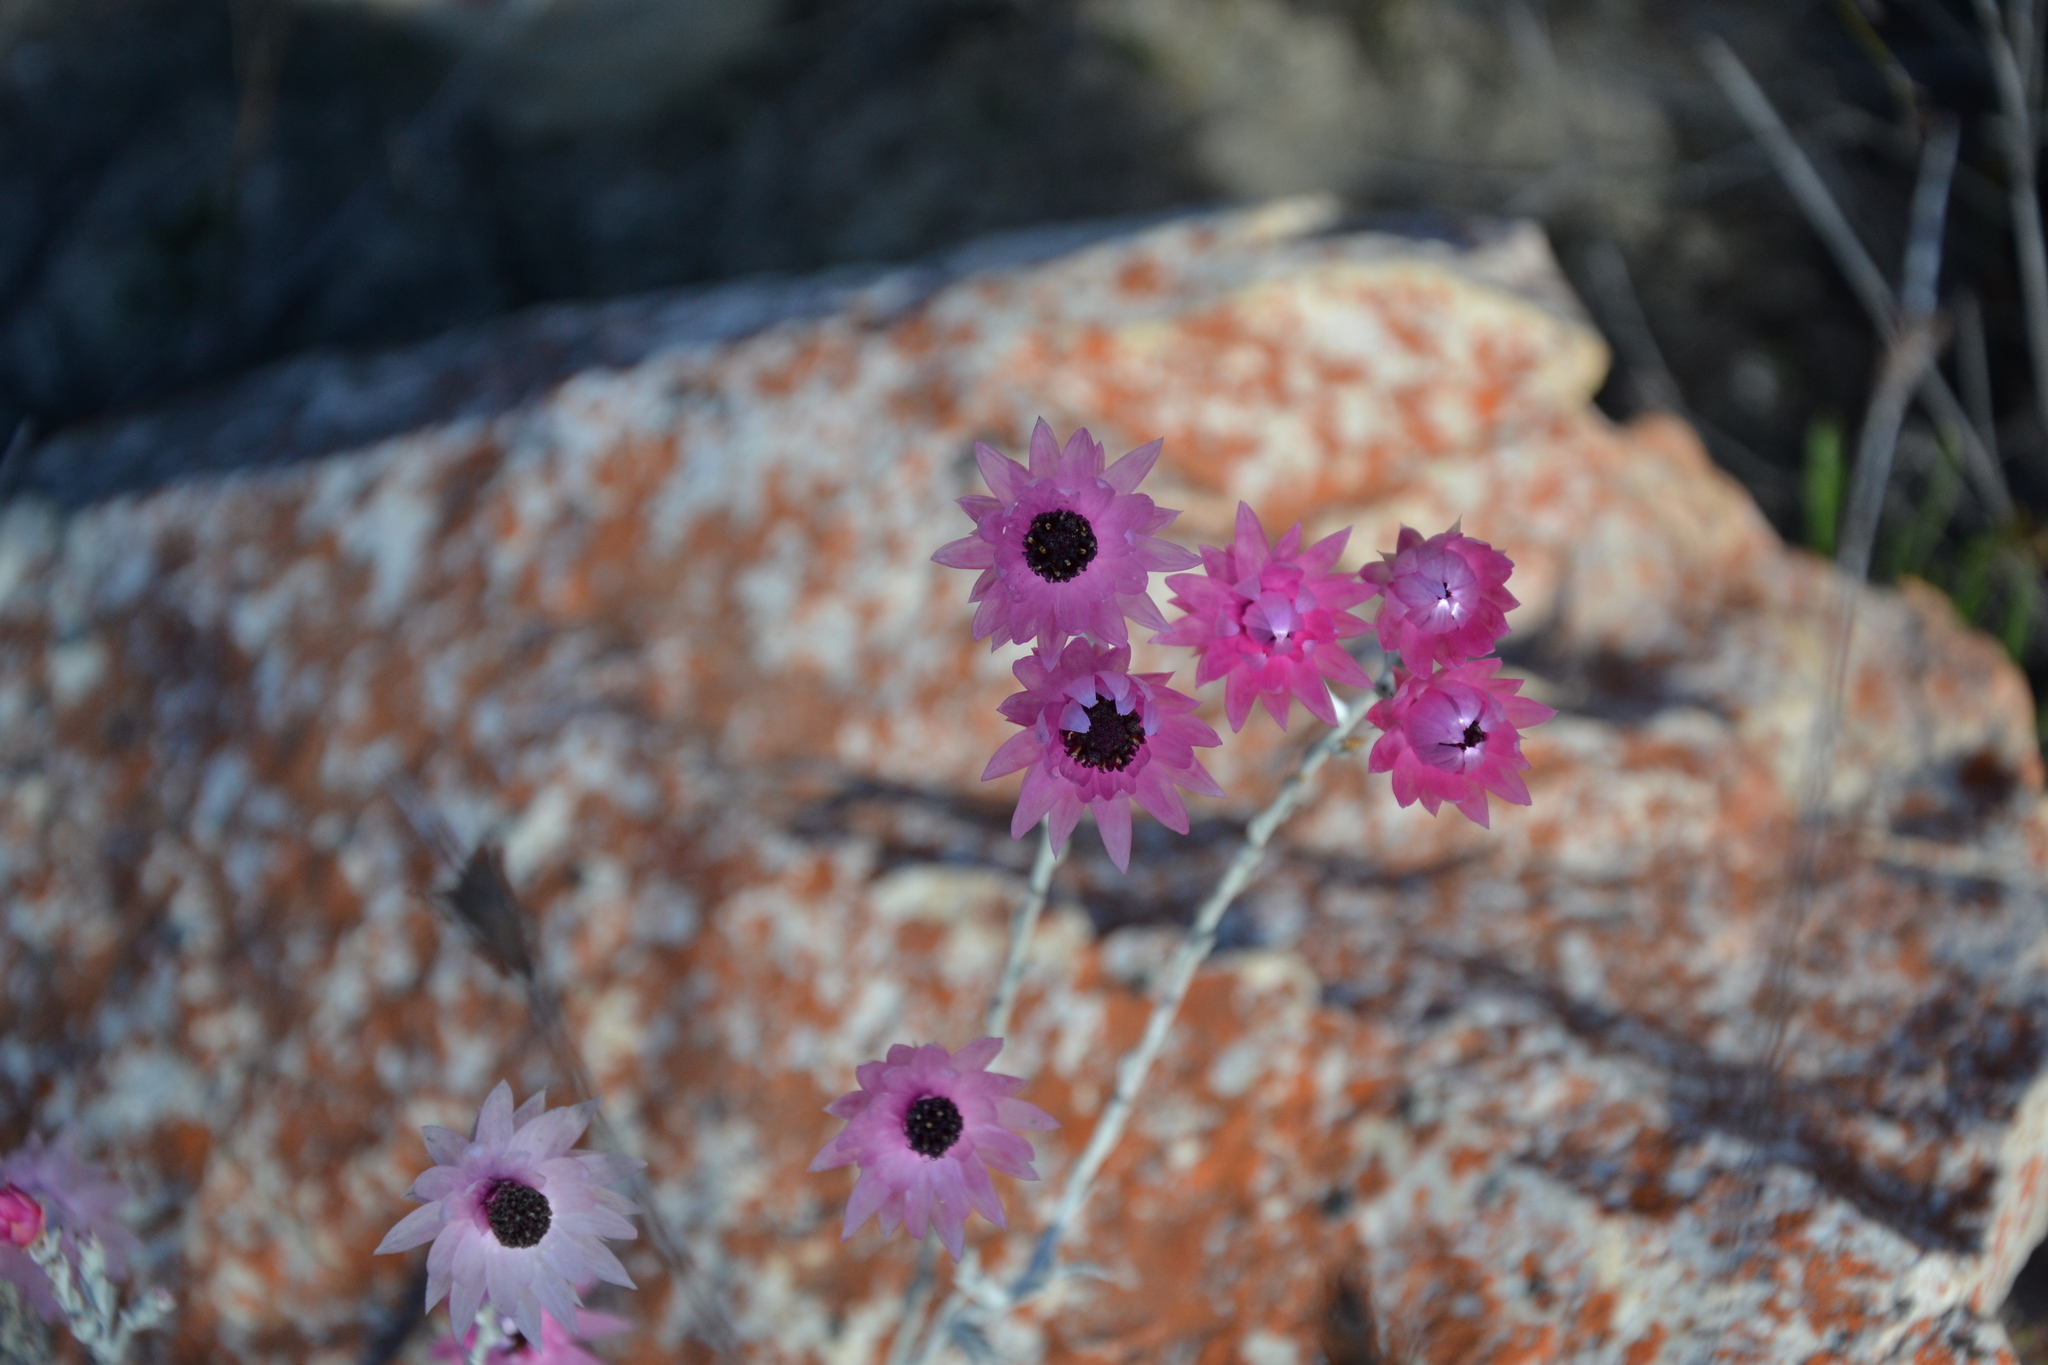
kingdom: Plantae
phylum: Tracheophyta
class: Magnoliopsida
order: Asterales
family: Asteraceae
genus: Syncarpha
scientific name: Syncarpha canescens
